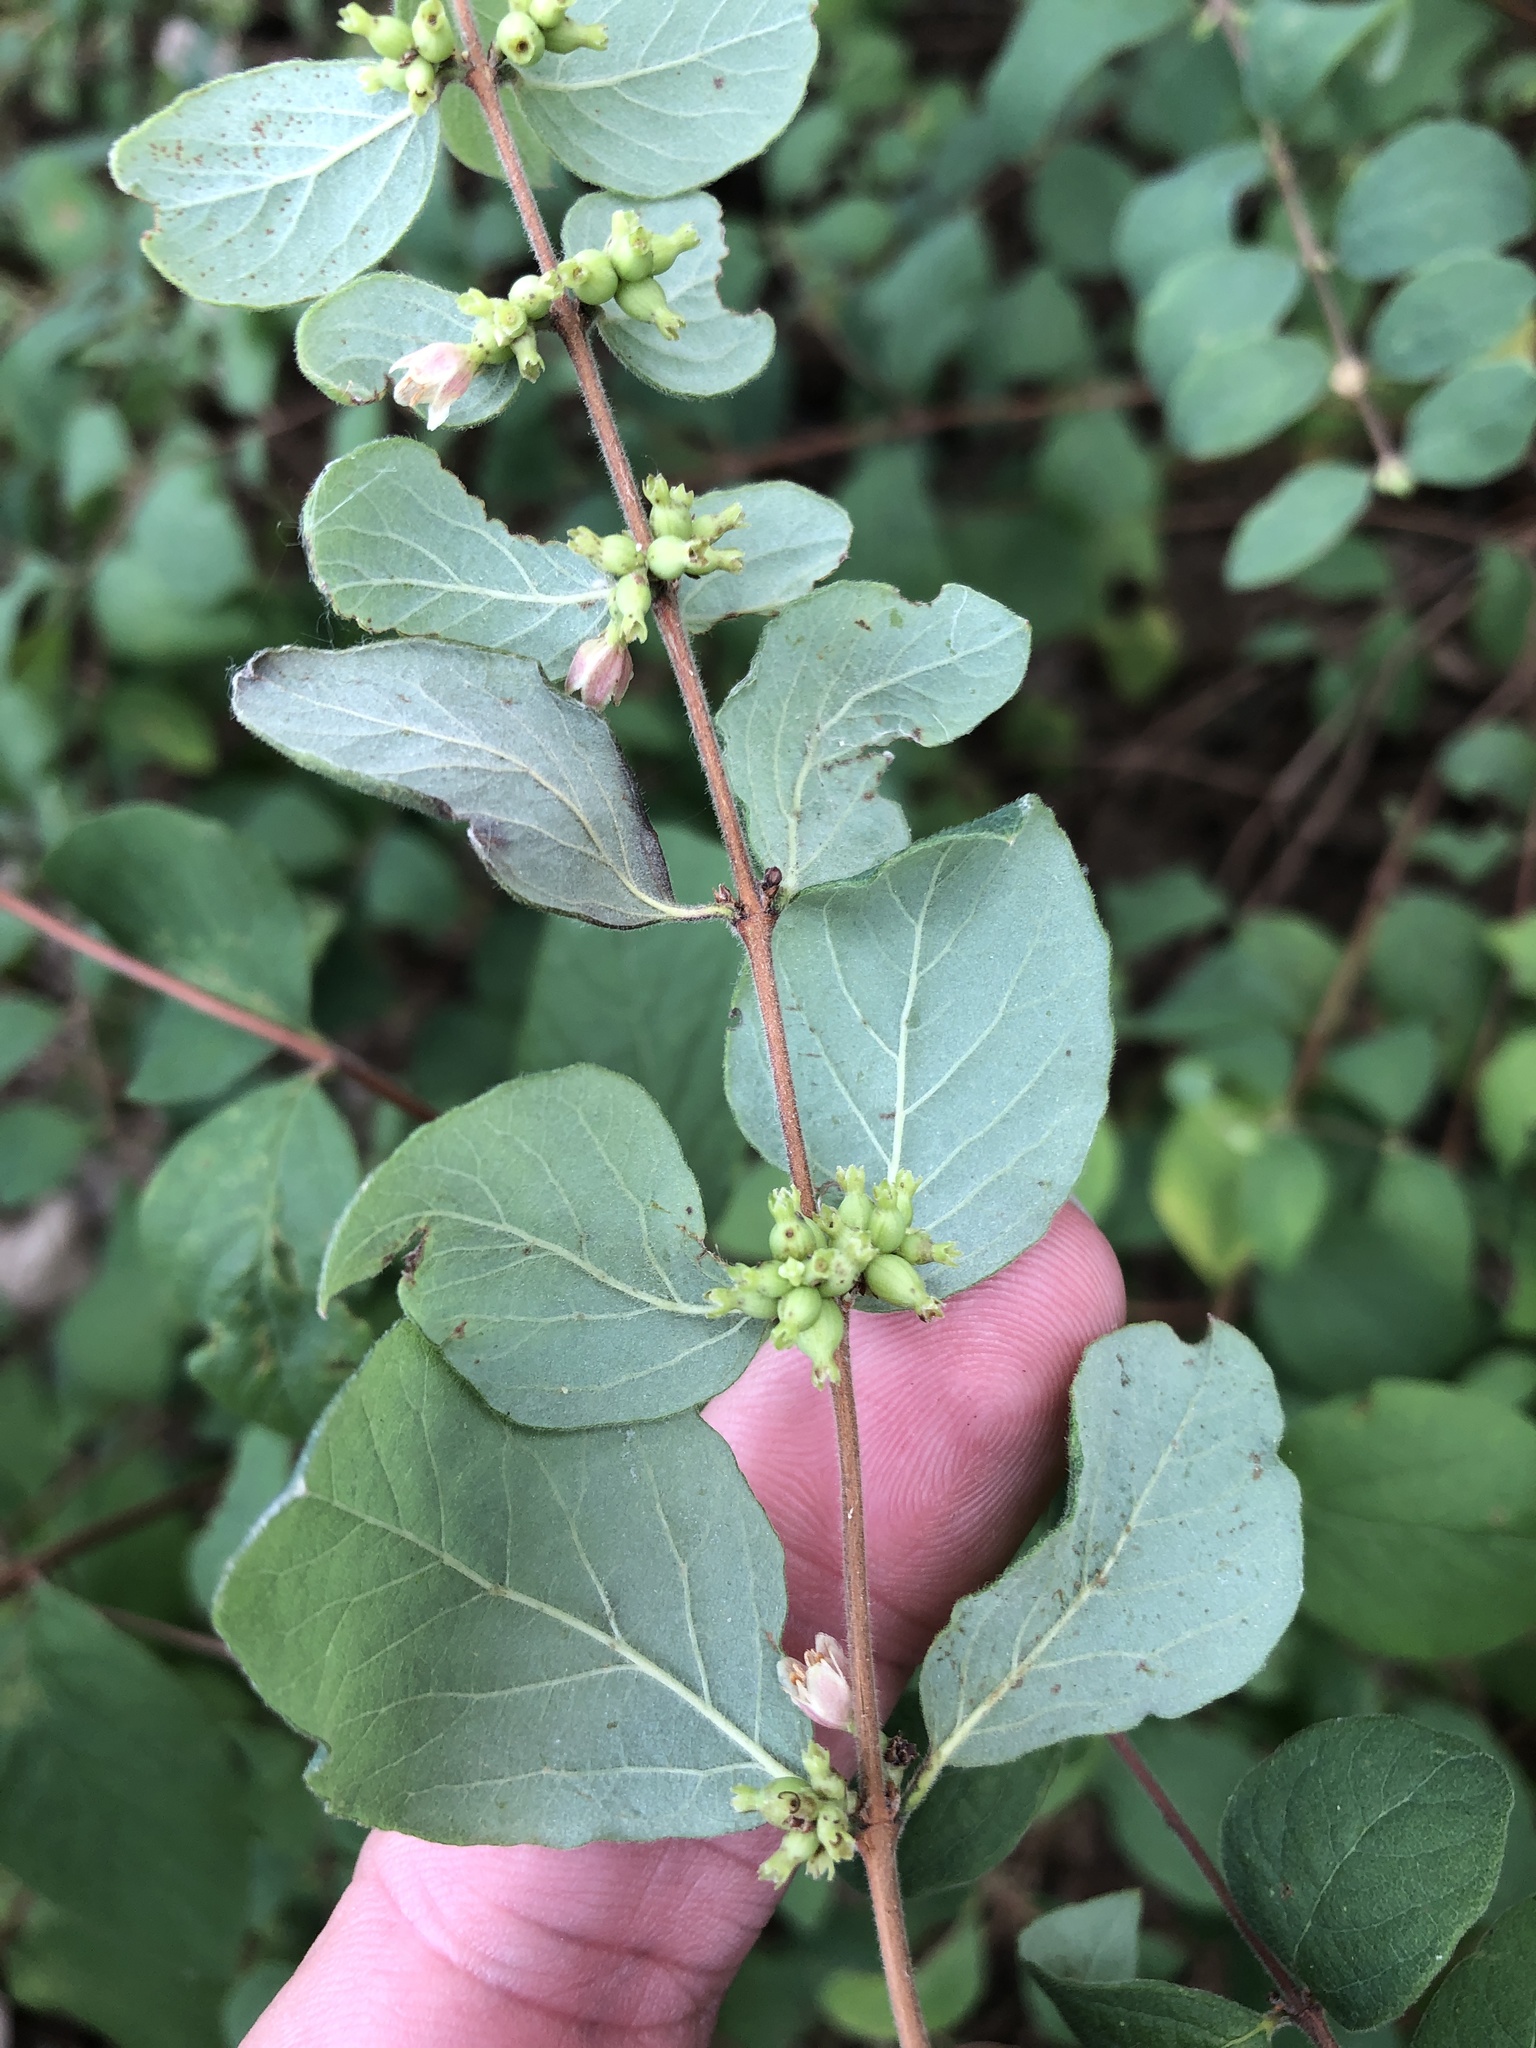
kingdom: Plantae
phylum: Tracheophyta
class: Magnoliopsida
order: Dipsacales
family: Caprifoliaceae
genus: Symphoricarpos
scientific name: Symphoricarpos orbiculatus
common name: Coralberry
